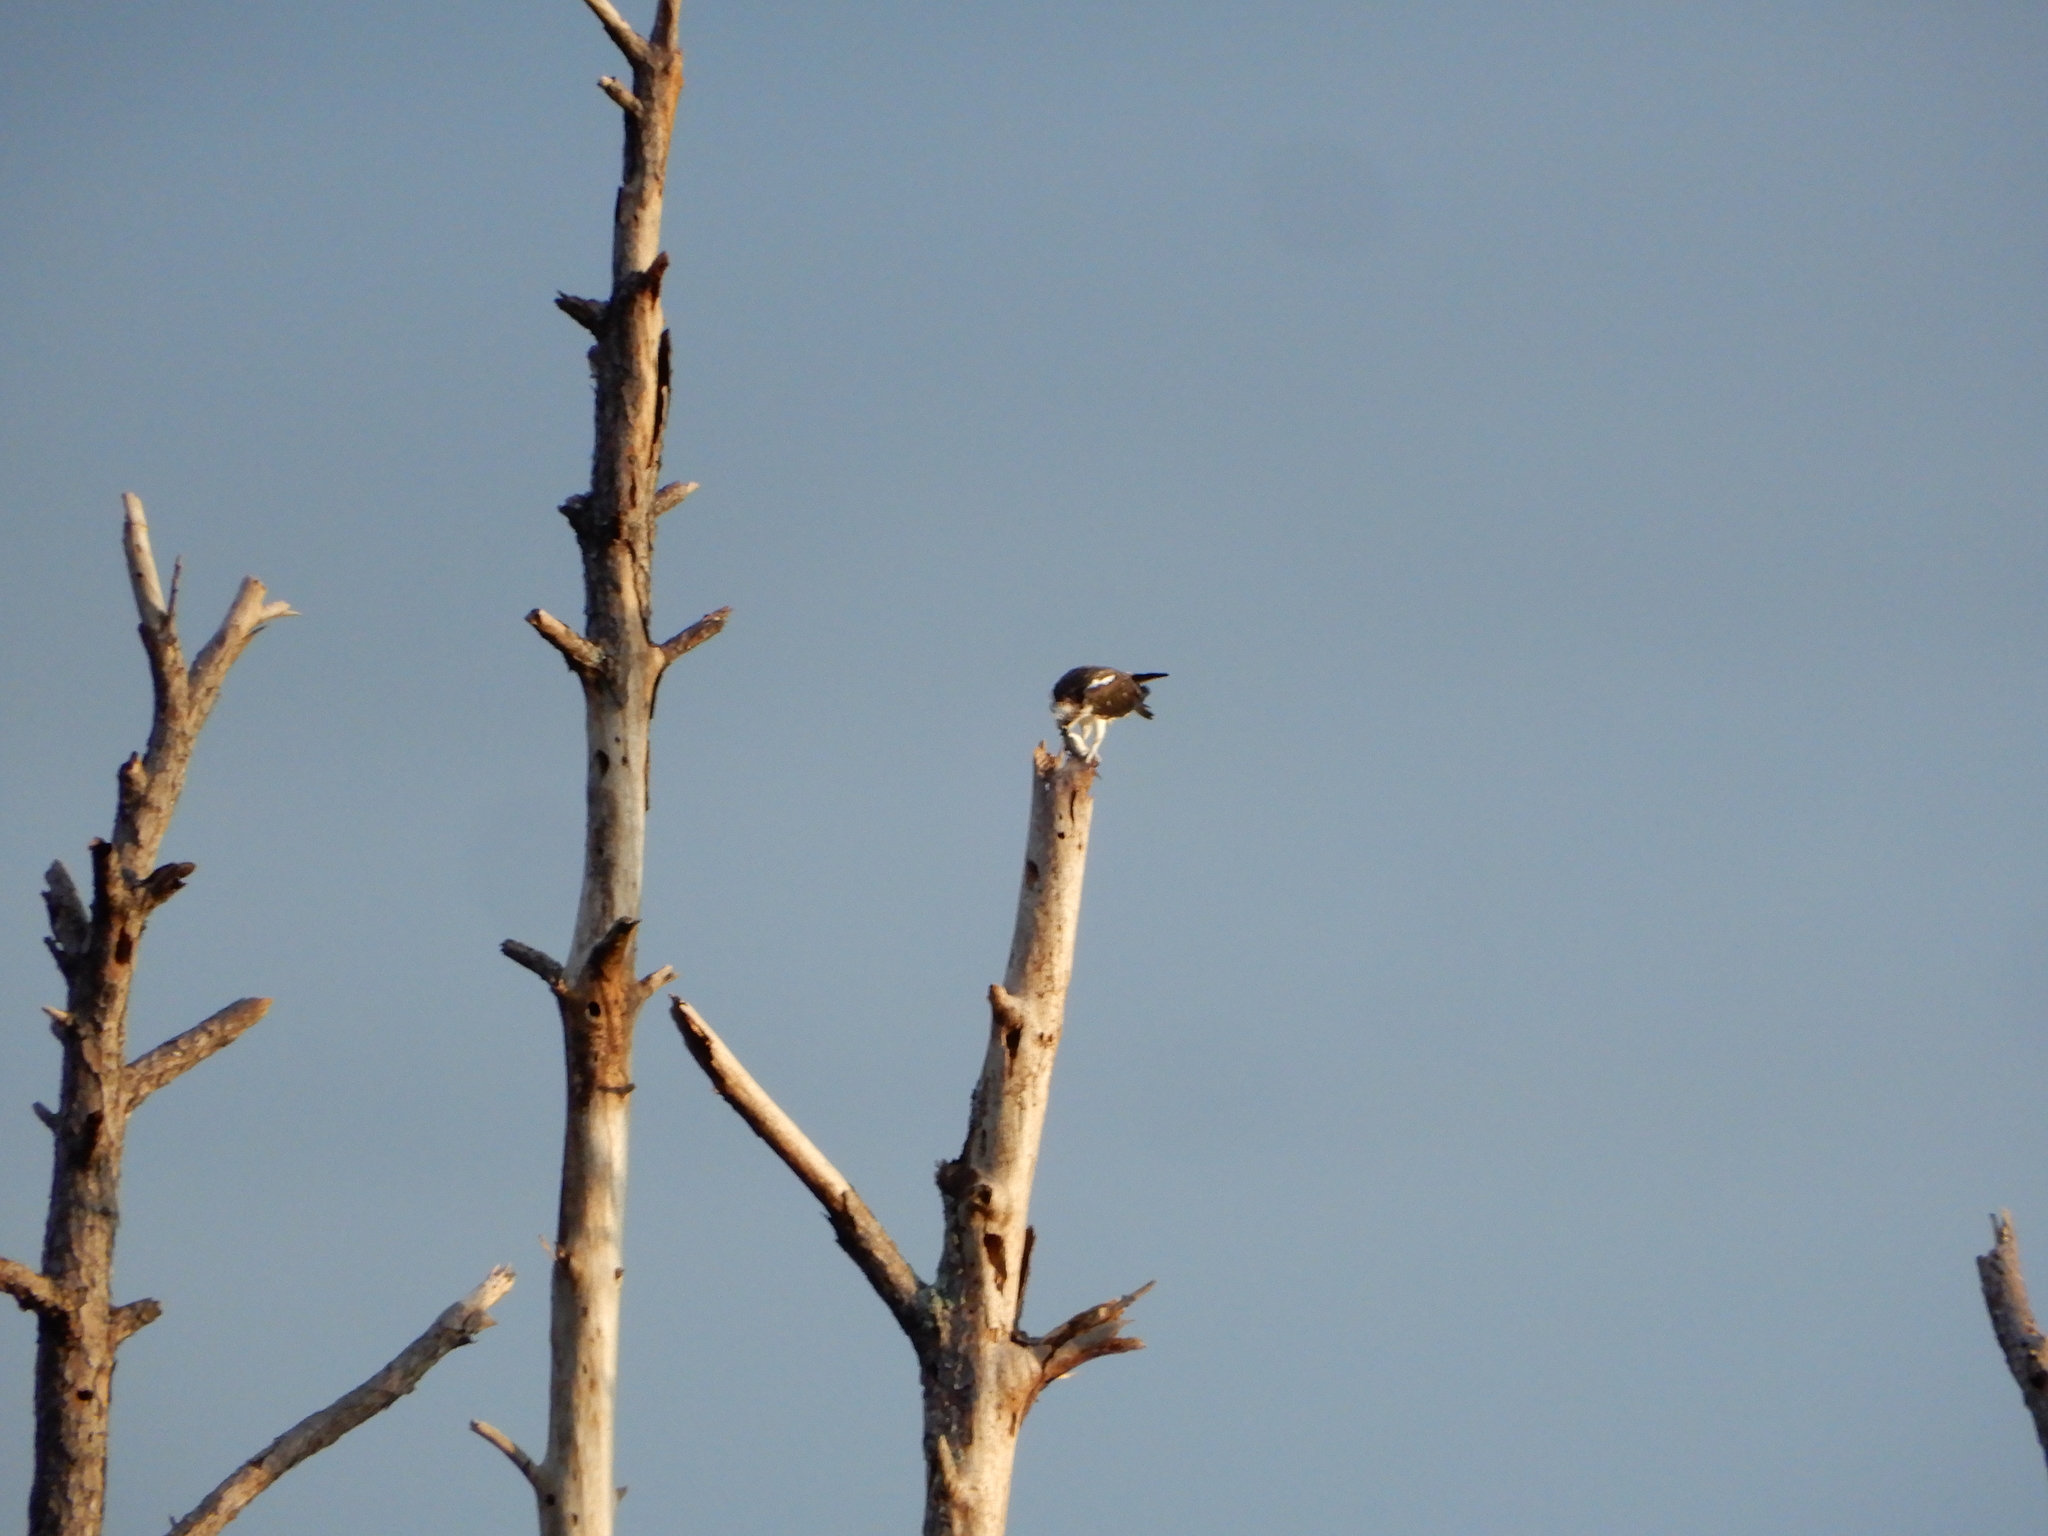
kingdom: Animalia
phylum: Chordata
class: Aves
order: Accipitriformes
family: Pandionidae
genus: Pandion
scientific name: Pandion haliaetus
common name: Osprey
